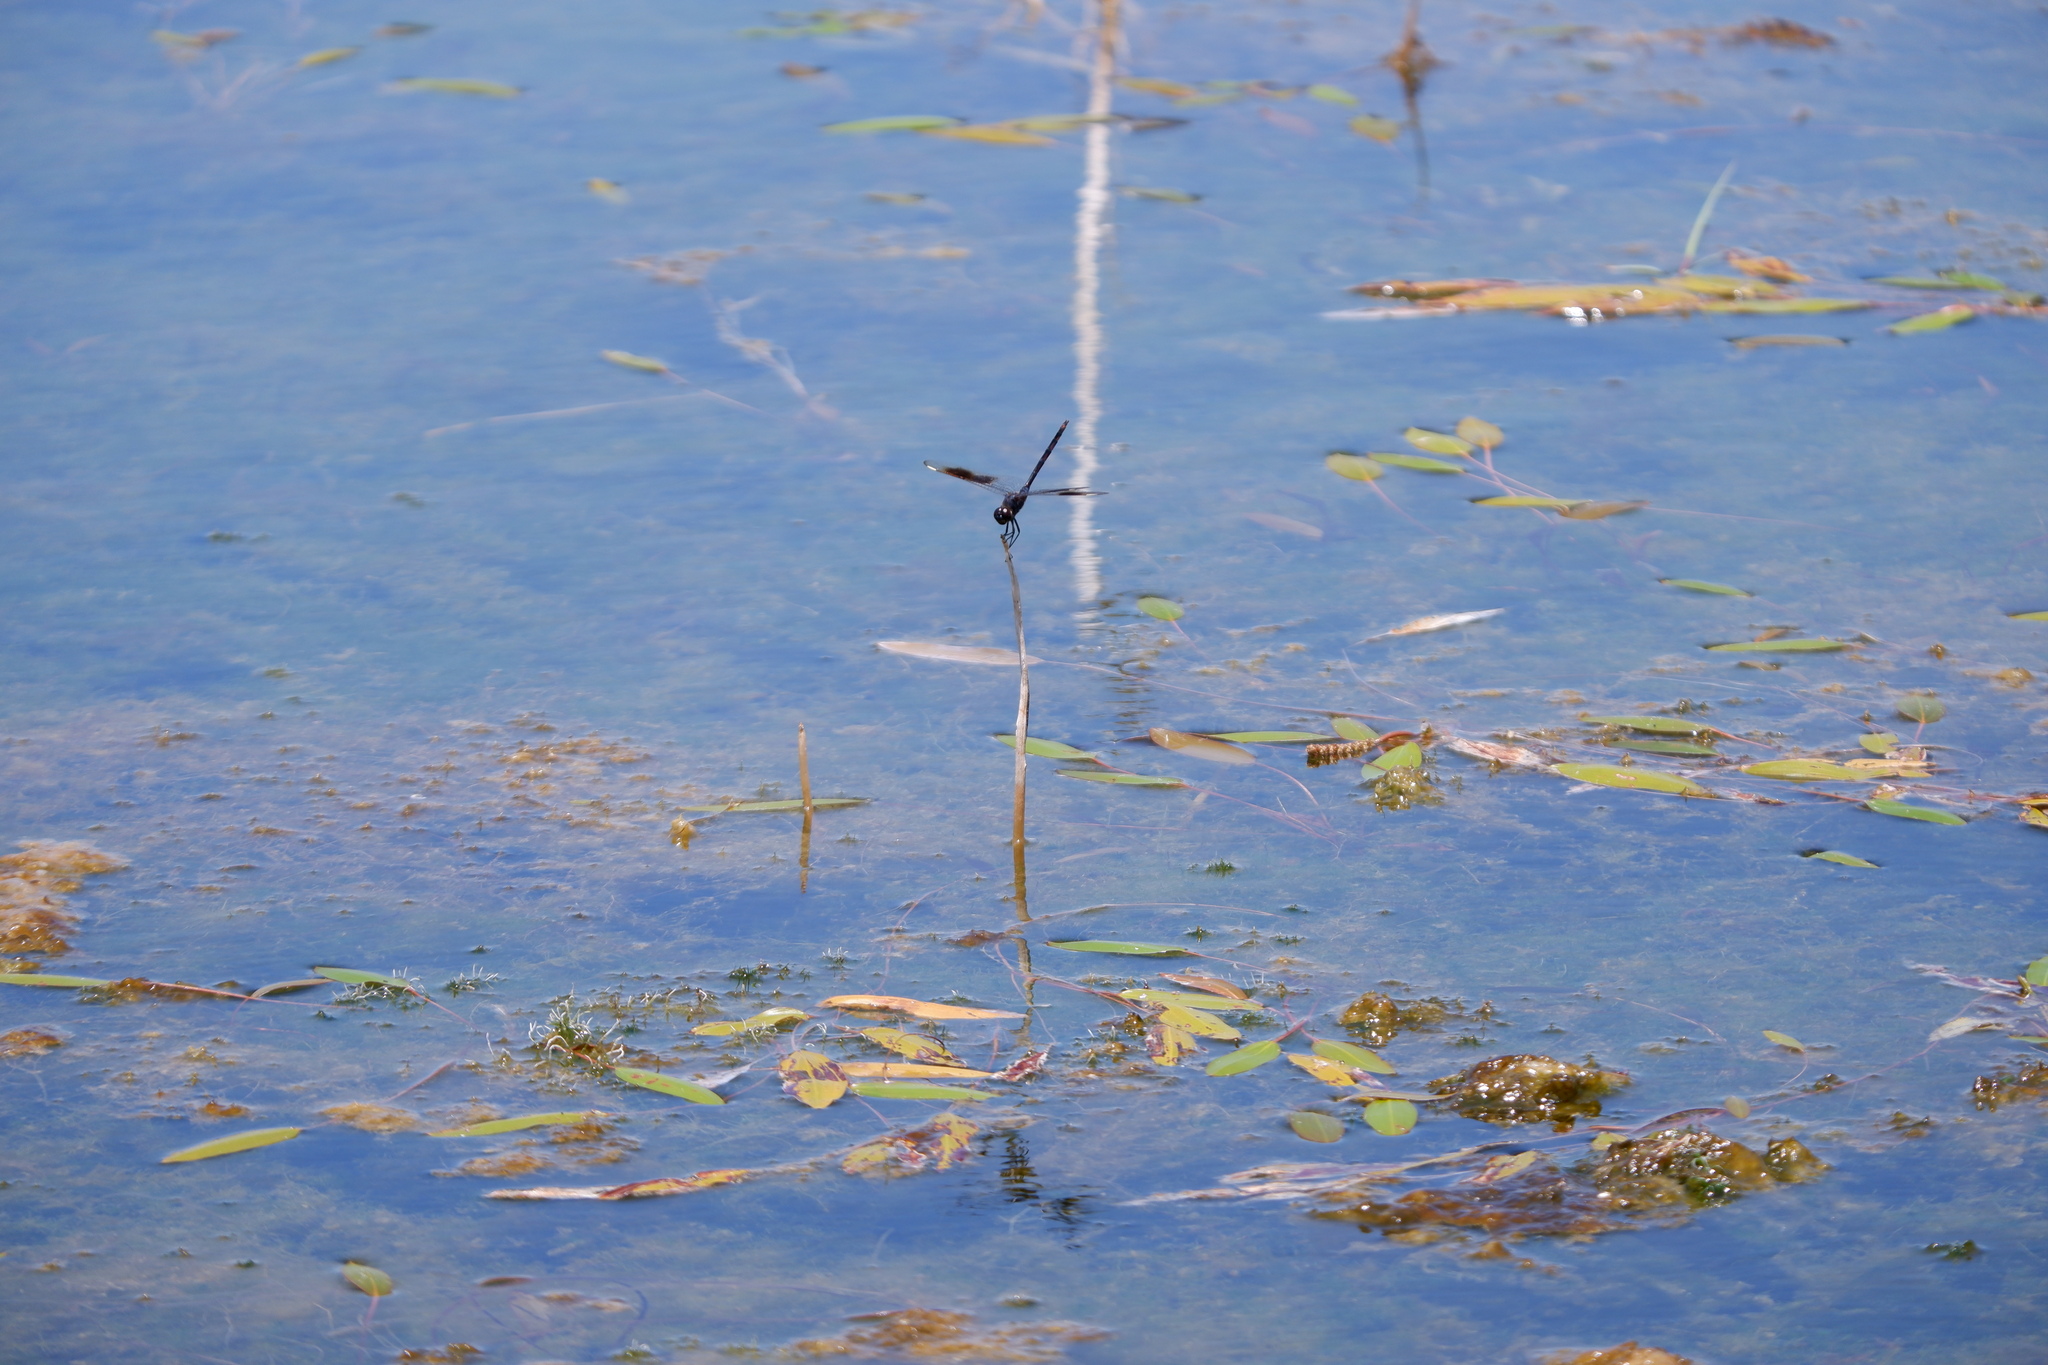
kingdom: Animalia
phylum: Arthropoda
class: Insecta
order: Odonata
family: Libellulidae
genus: Brachymesia
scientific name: Brachymesia gravida
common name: Four-spotted pennant
